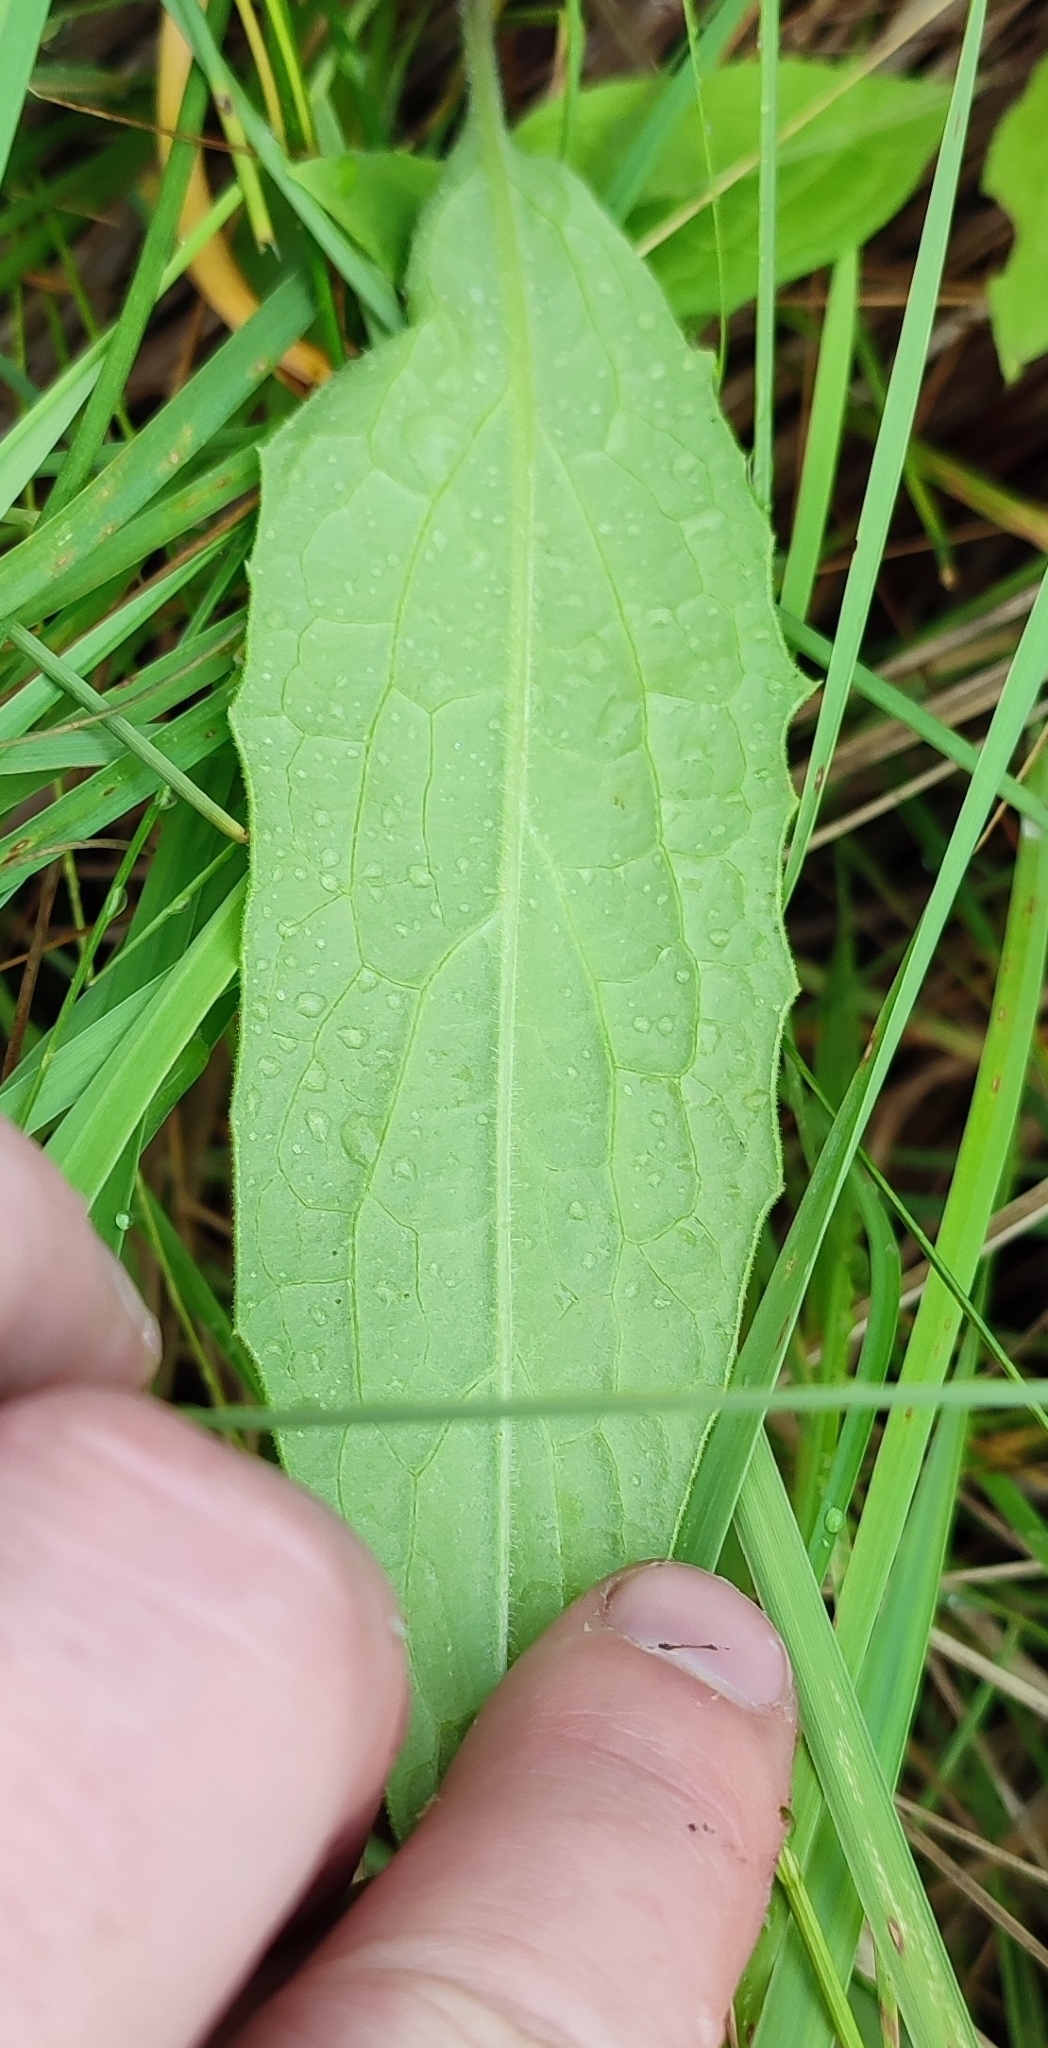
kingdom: Plantae
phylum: Tracheophyta
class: Magnoliopsida
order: Asterales
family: Asteraceae
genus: Saussurea
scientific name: Saussurea amara
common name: Alberta sawwort
